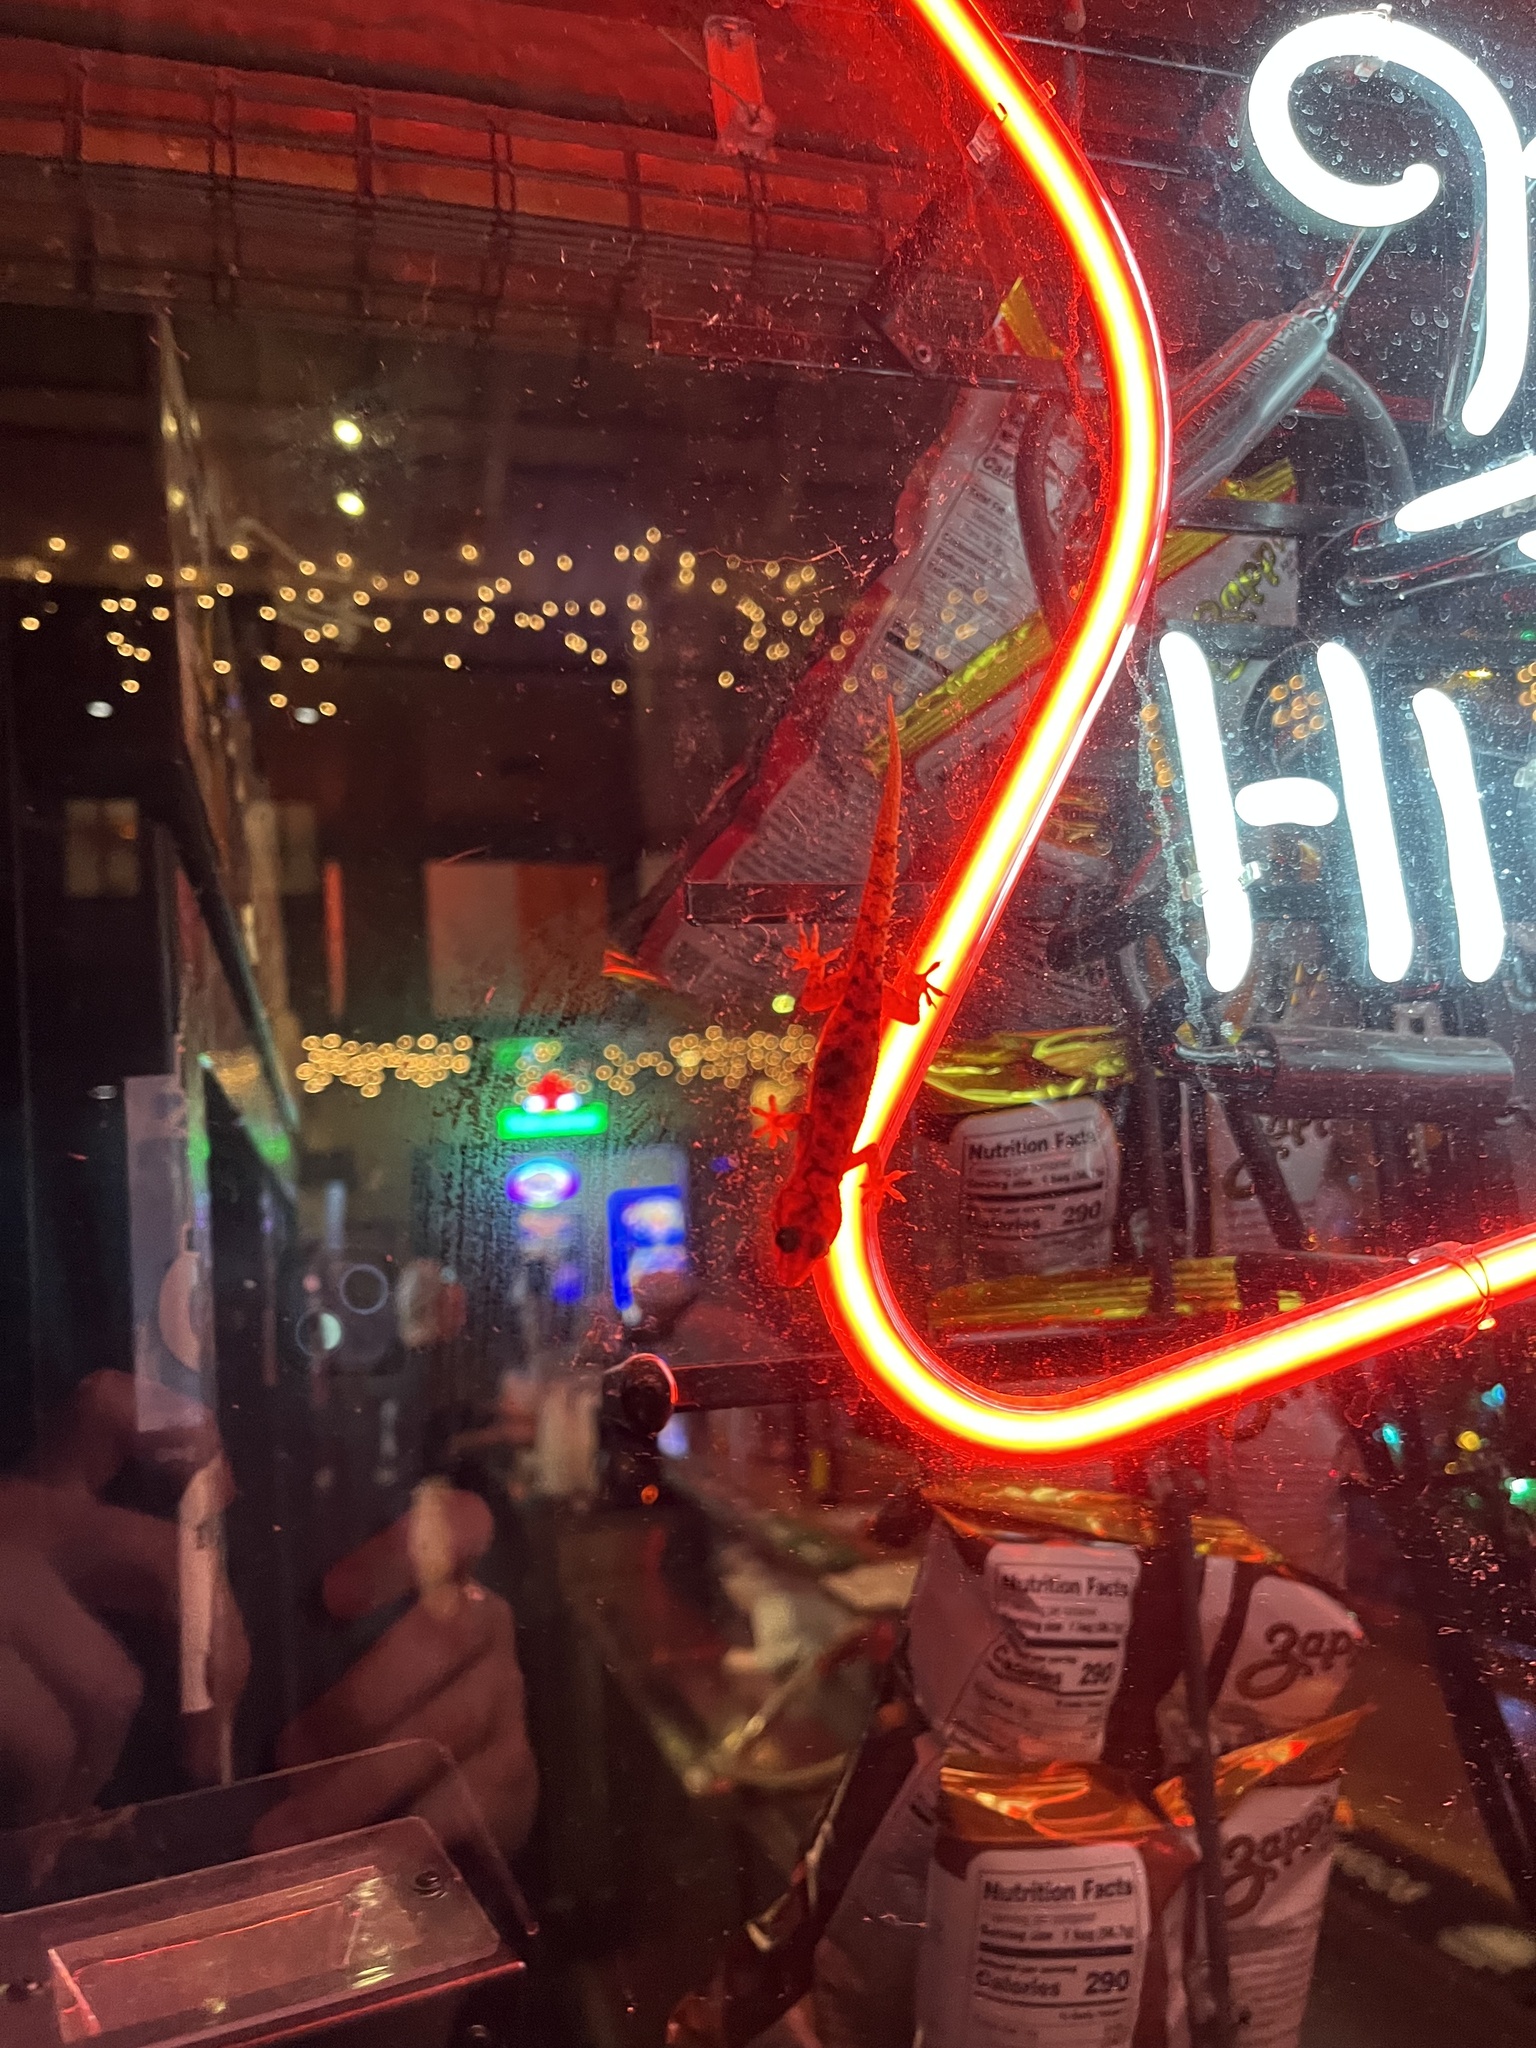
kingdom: Animalia
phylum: Chordata
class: Squamata
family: Gekkonidae
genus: Hemidactylus
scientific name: Hemidactylus parvimaculatus
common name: Spotted house gecko
